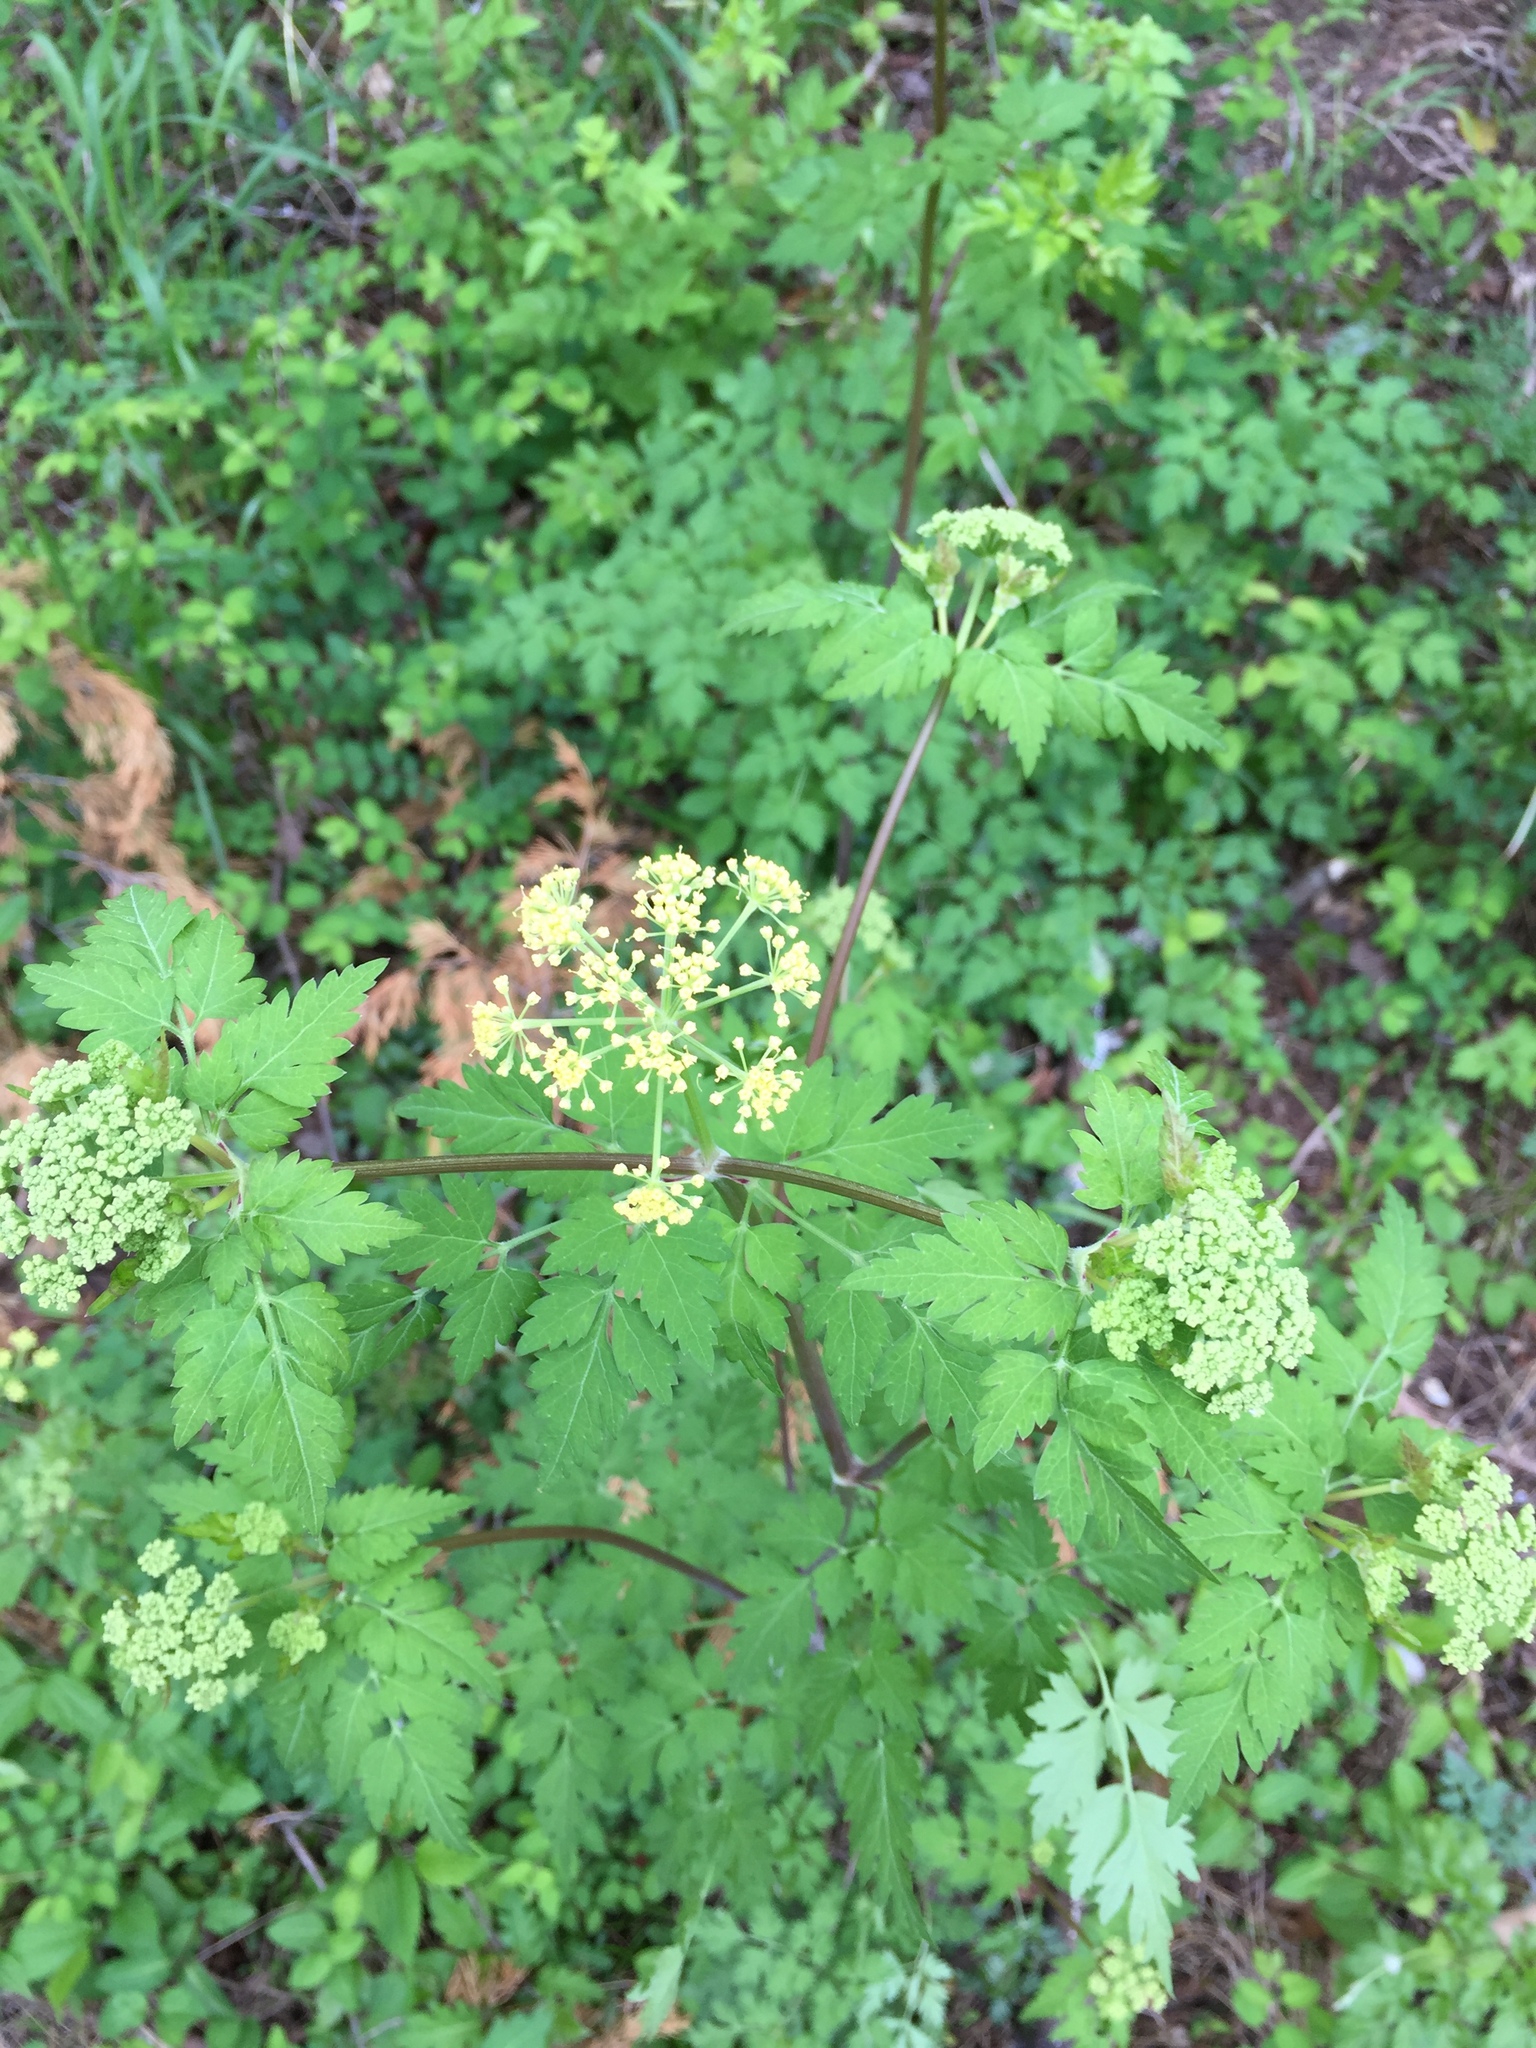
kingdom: Plantae
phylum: Tracheophyta
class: Magnoliopsida
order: Apiales
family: Apiaceae
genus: Thaspium
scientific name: Thaspium barbinode
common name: Bearded meadow-parsnip
